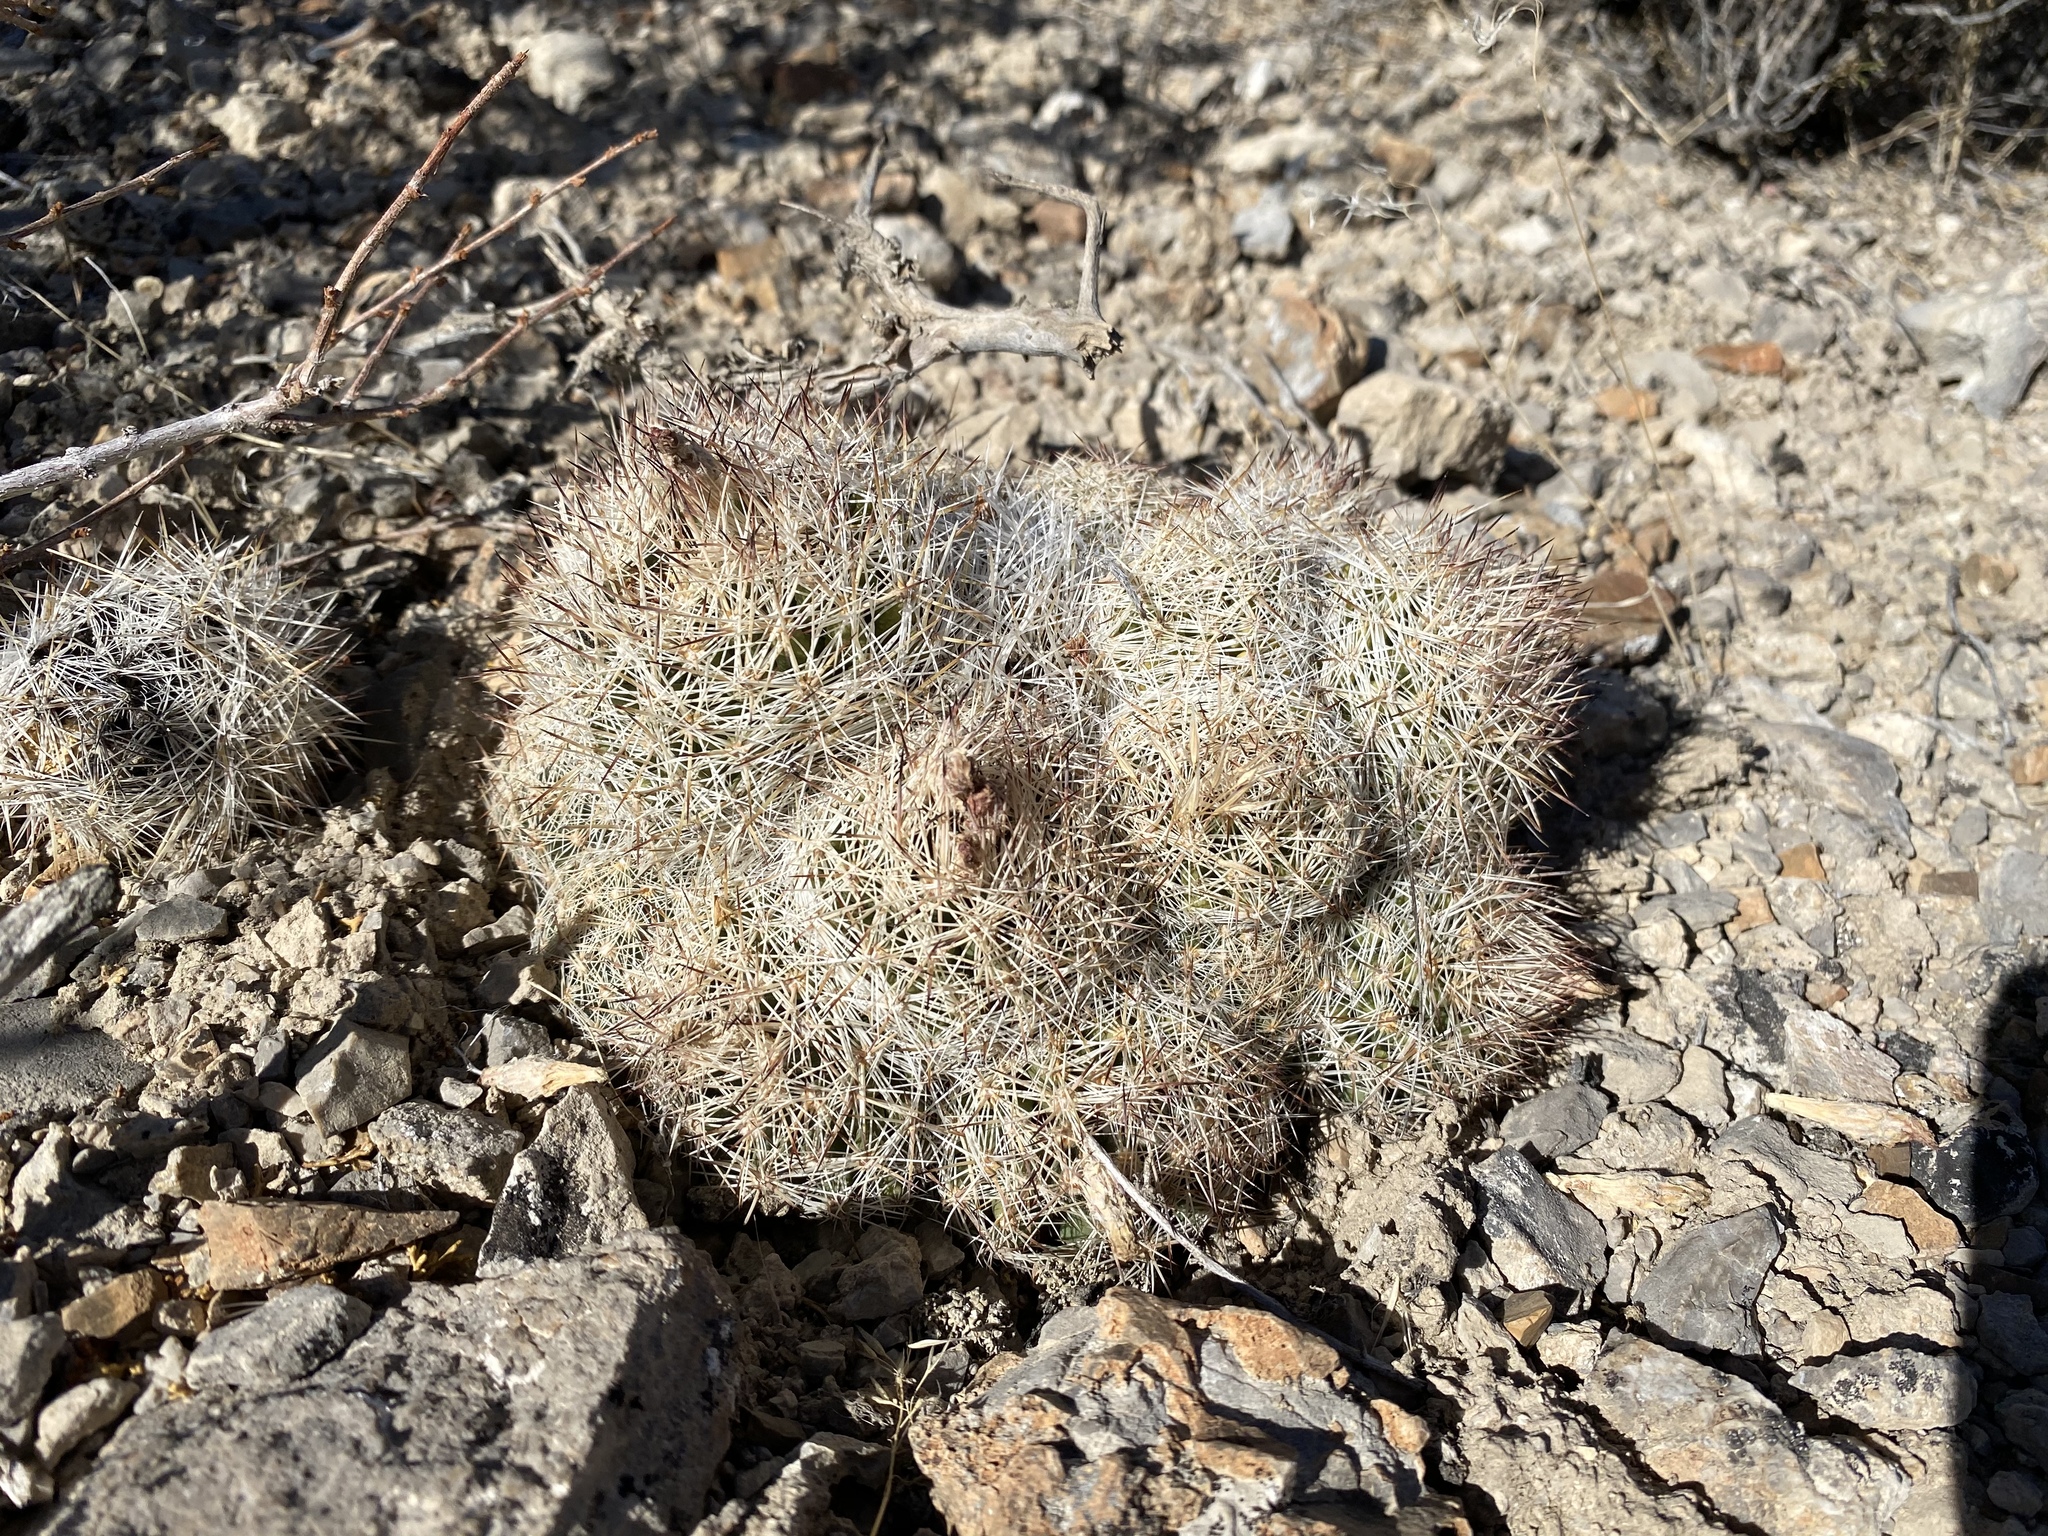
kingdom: Plantae
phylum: Tracheophyta
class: Magnoliopsida
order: Caryophyllales
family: Cactaceae
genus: Pelecyphora
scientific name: Pelecyphora vivipara
